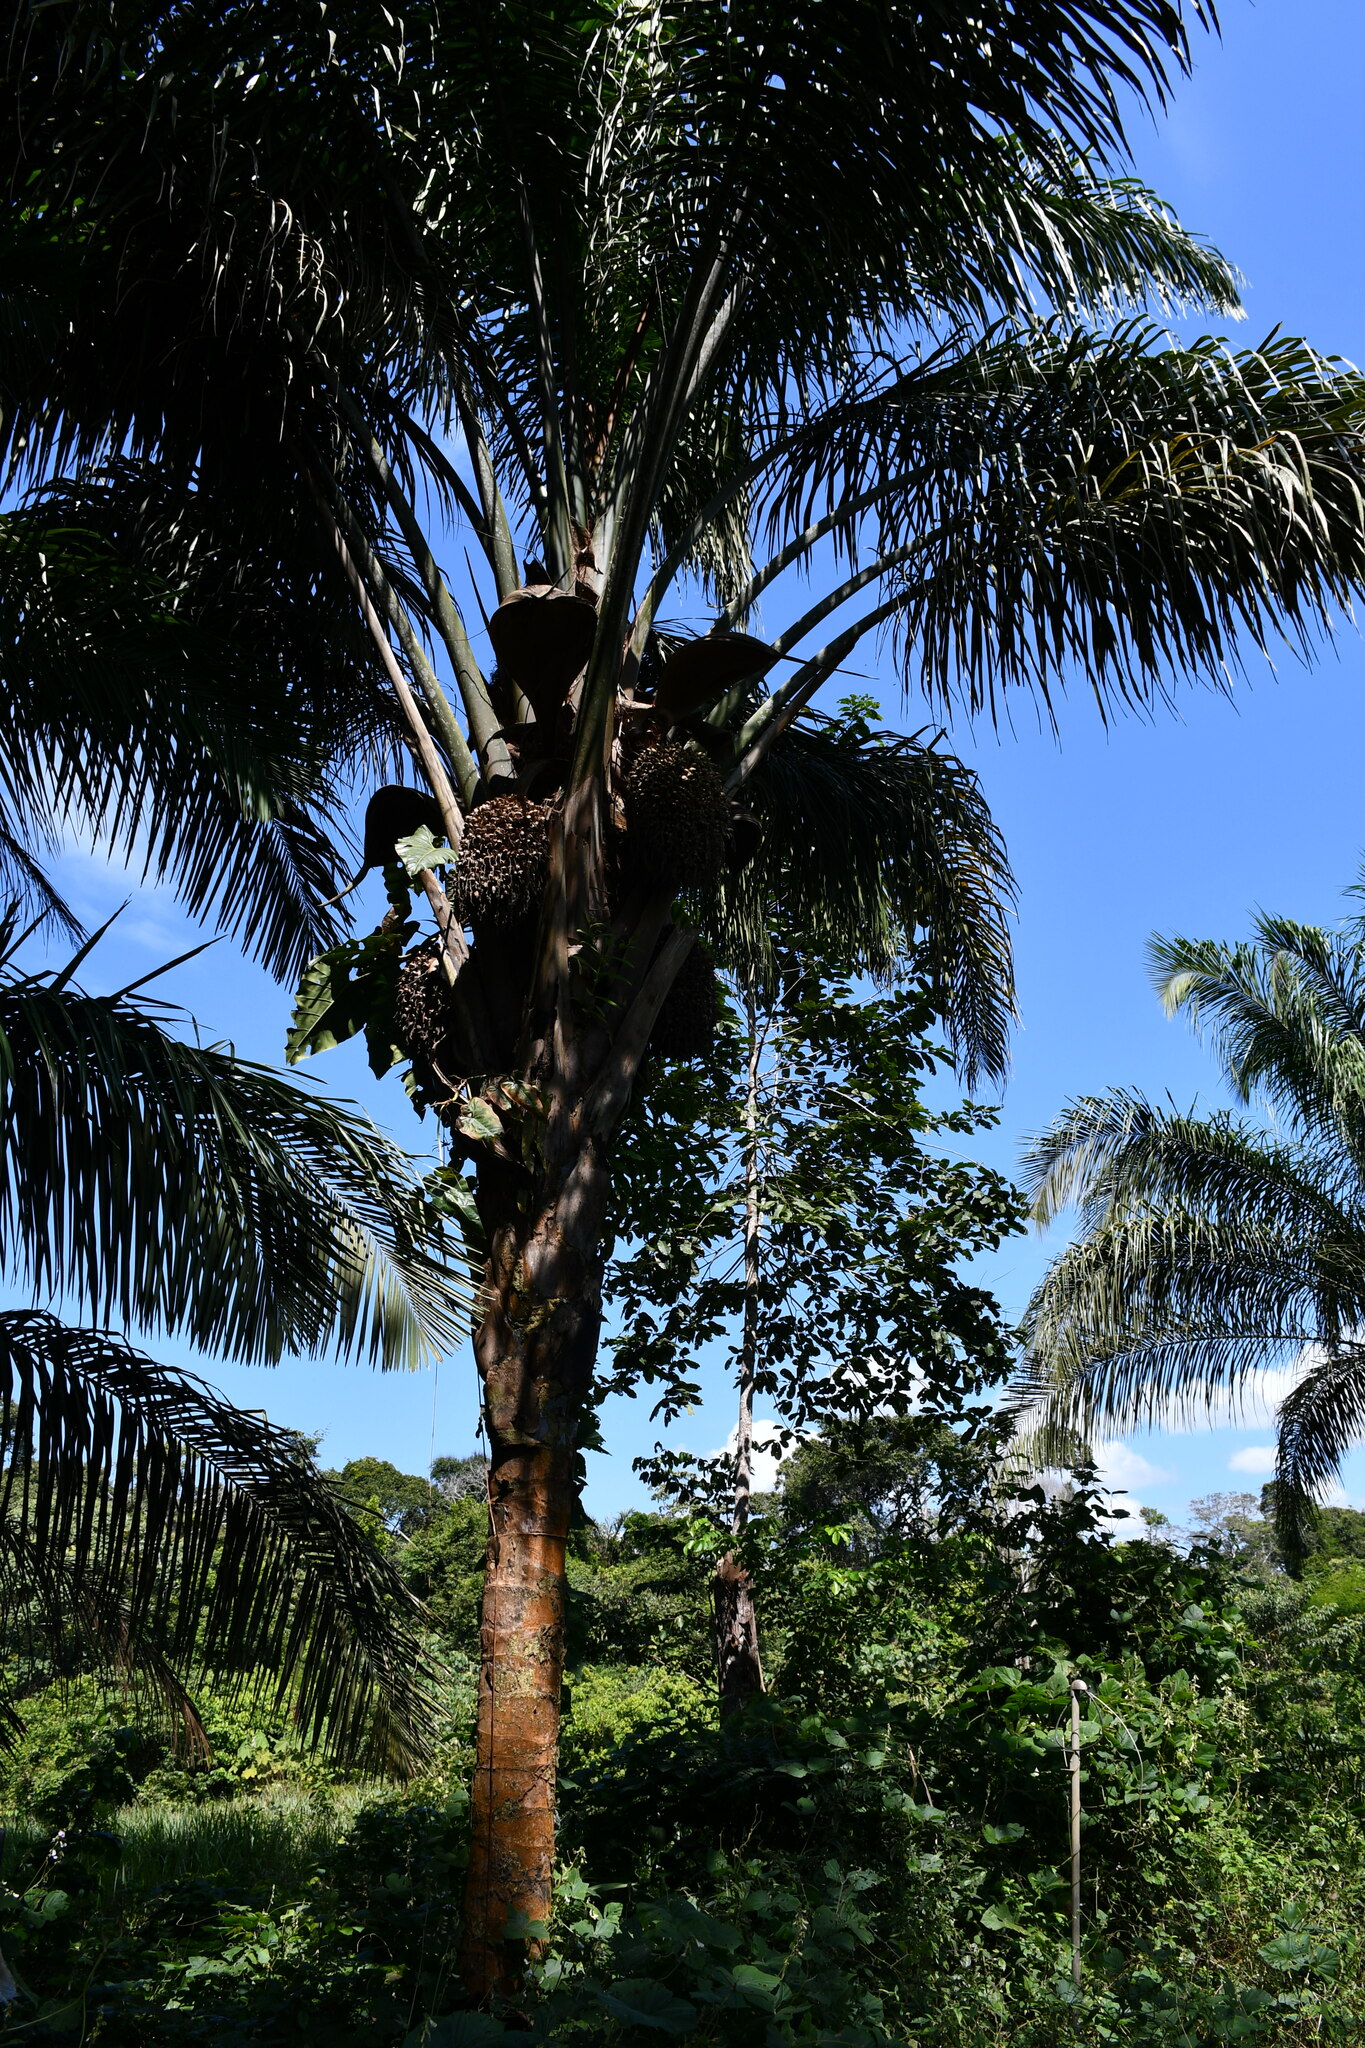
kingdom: Plantae
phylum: Tracheophyta
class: Liliopsida
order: Arecales
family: Arecaceae
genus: Attalea
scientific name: Attalea maripa
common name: Maripa palm
